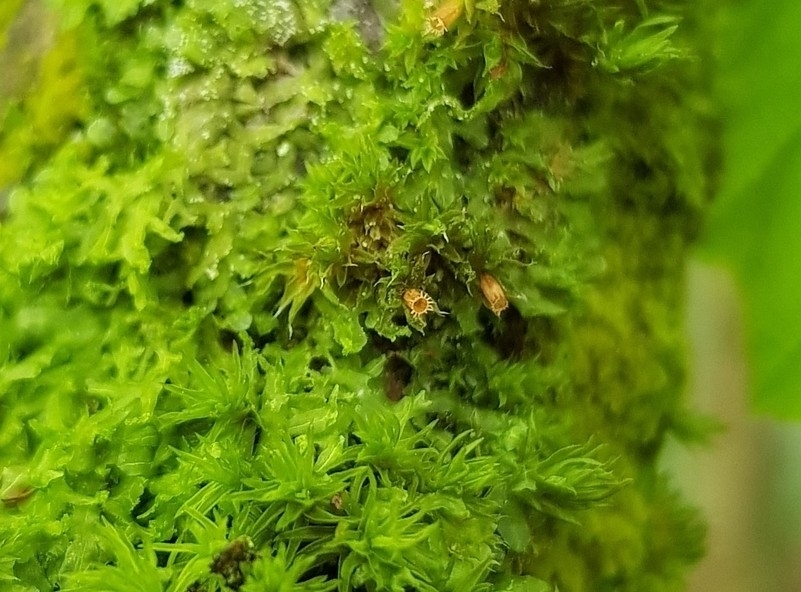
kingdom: Plantae
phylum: Bryophyta
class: Bryopsida
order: Orthotrichales
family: Orthotrichaceae
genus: Orthotrichum
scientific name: Orthotrichum diaphanum
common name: White-tipped bristle-moss
